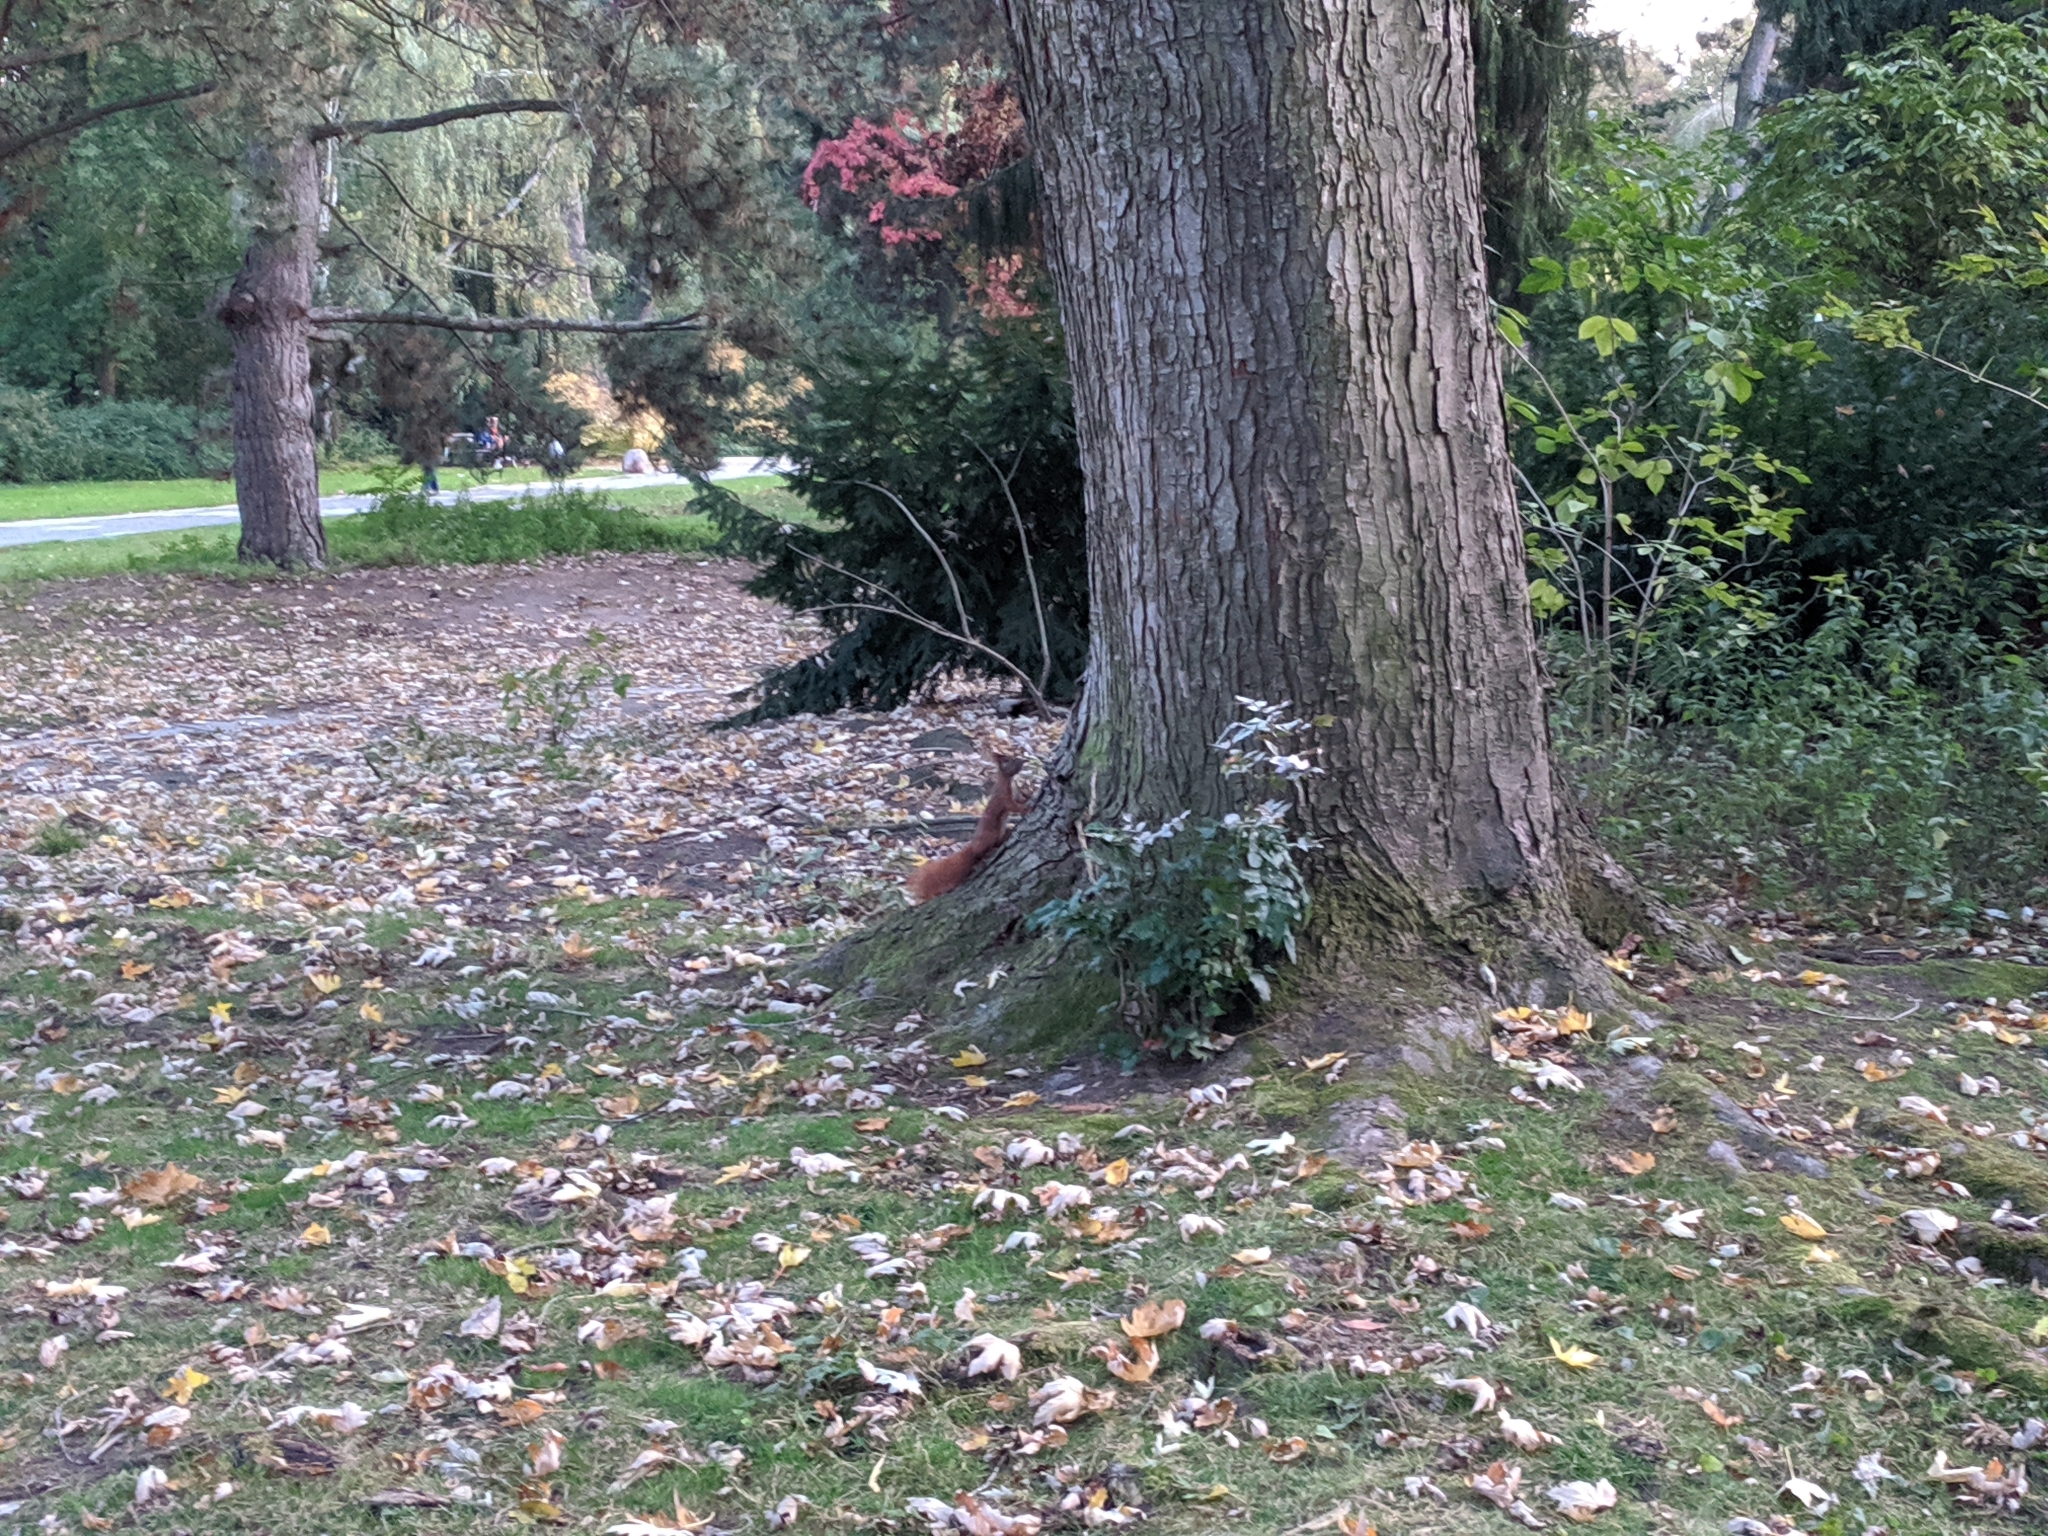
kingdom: Animalia
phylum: Chordata
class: Mammalia
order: Rodentia
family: Sciuridae
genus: Sciurus
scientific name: Sciurus vulgaris
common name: Eurasian red squirrel
